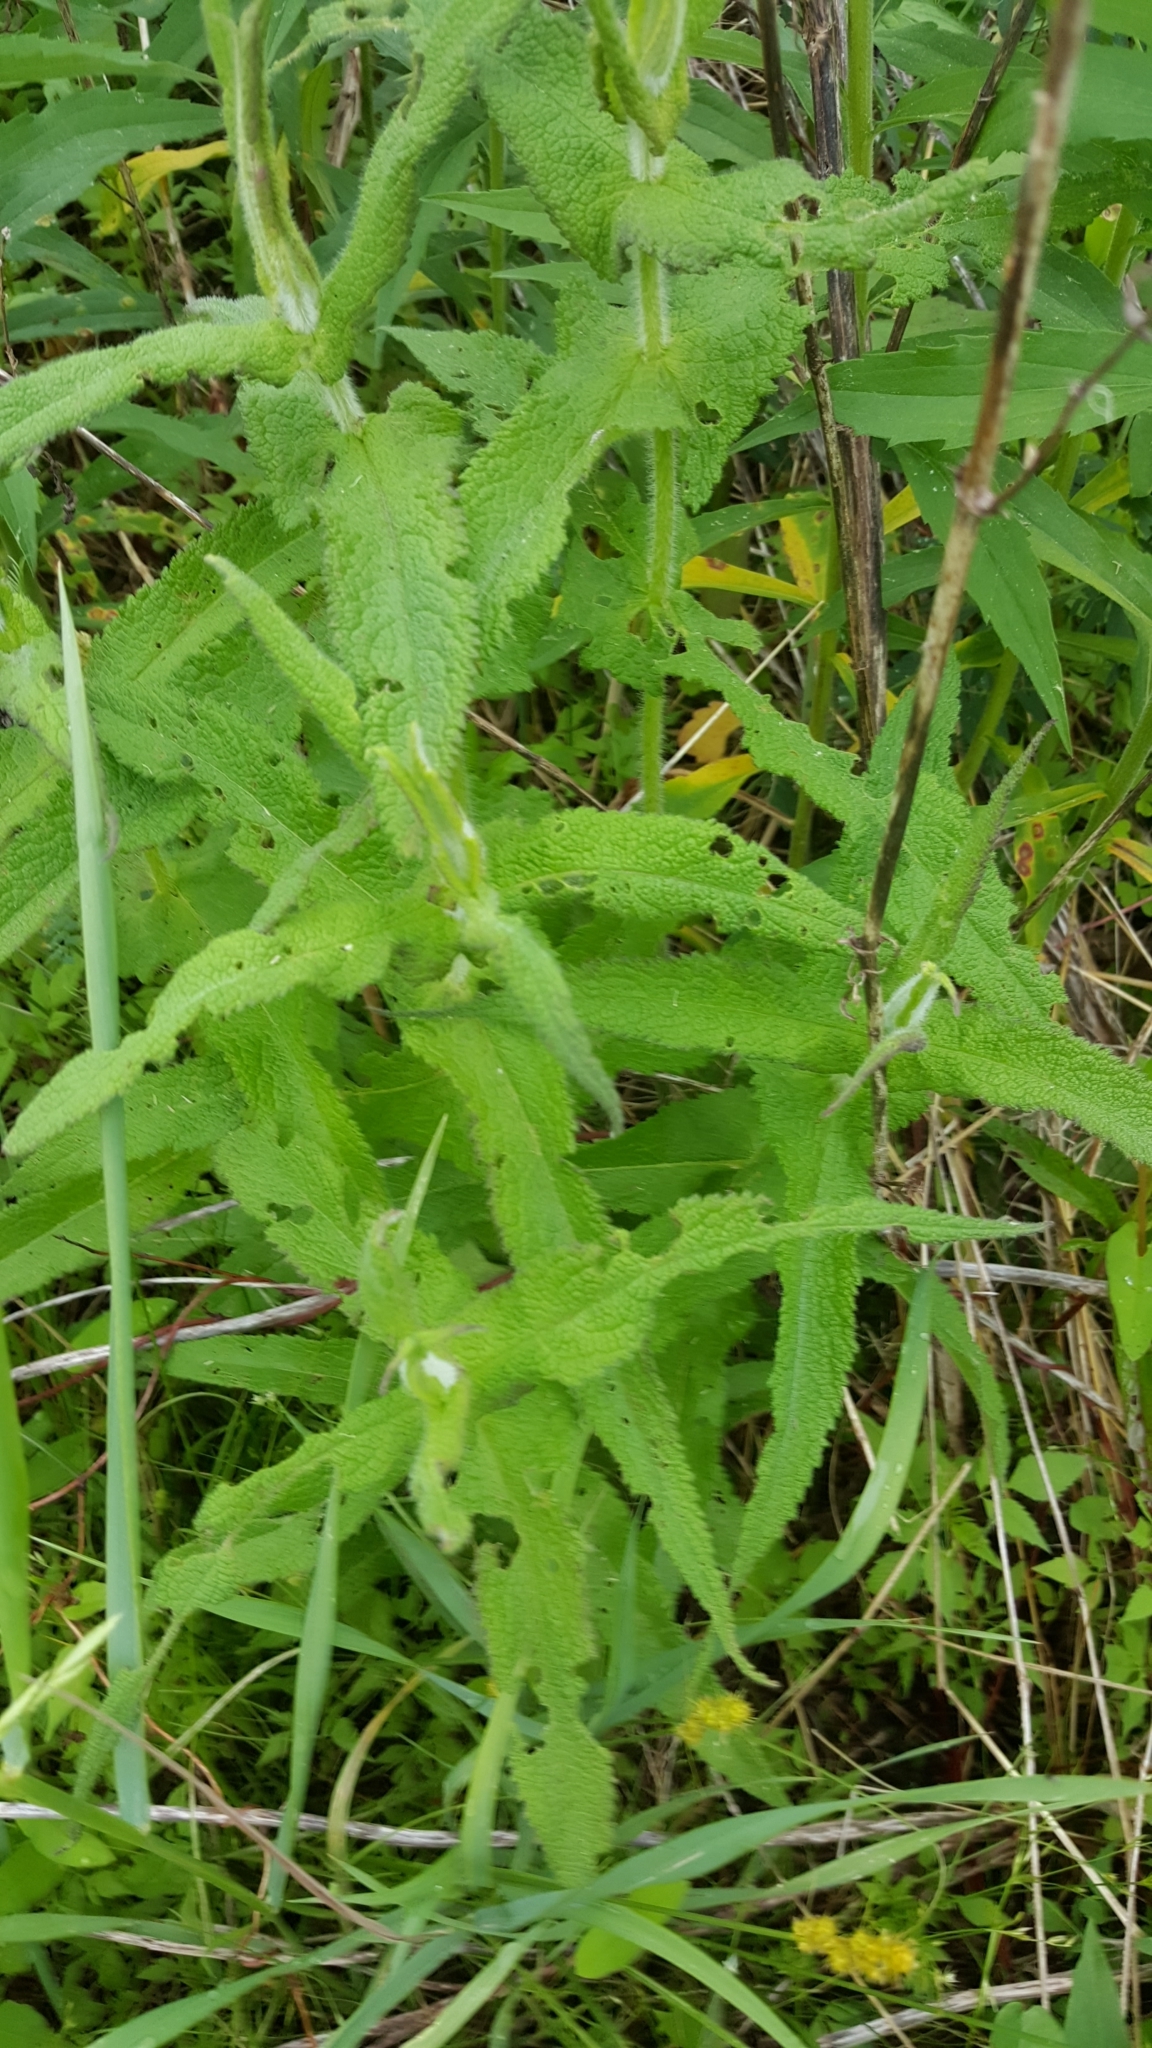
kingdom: Plantae
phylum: Tracheophyta
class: Magnoliopsida
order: Asterales
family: Asteraceae
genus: Eupatorium
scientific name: Eupatorium perfoliatum
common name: Boneset
